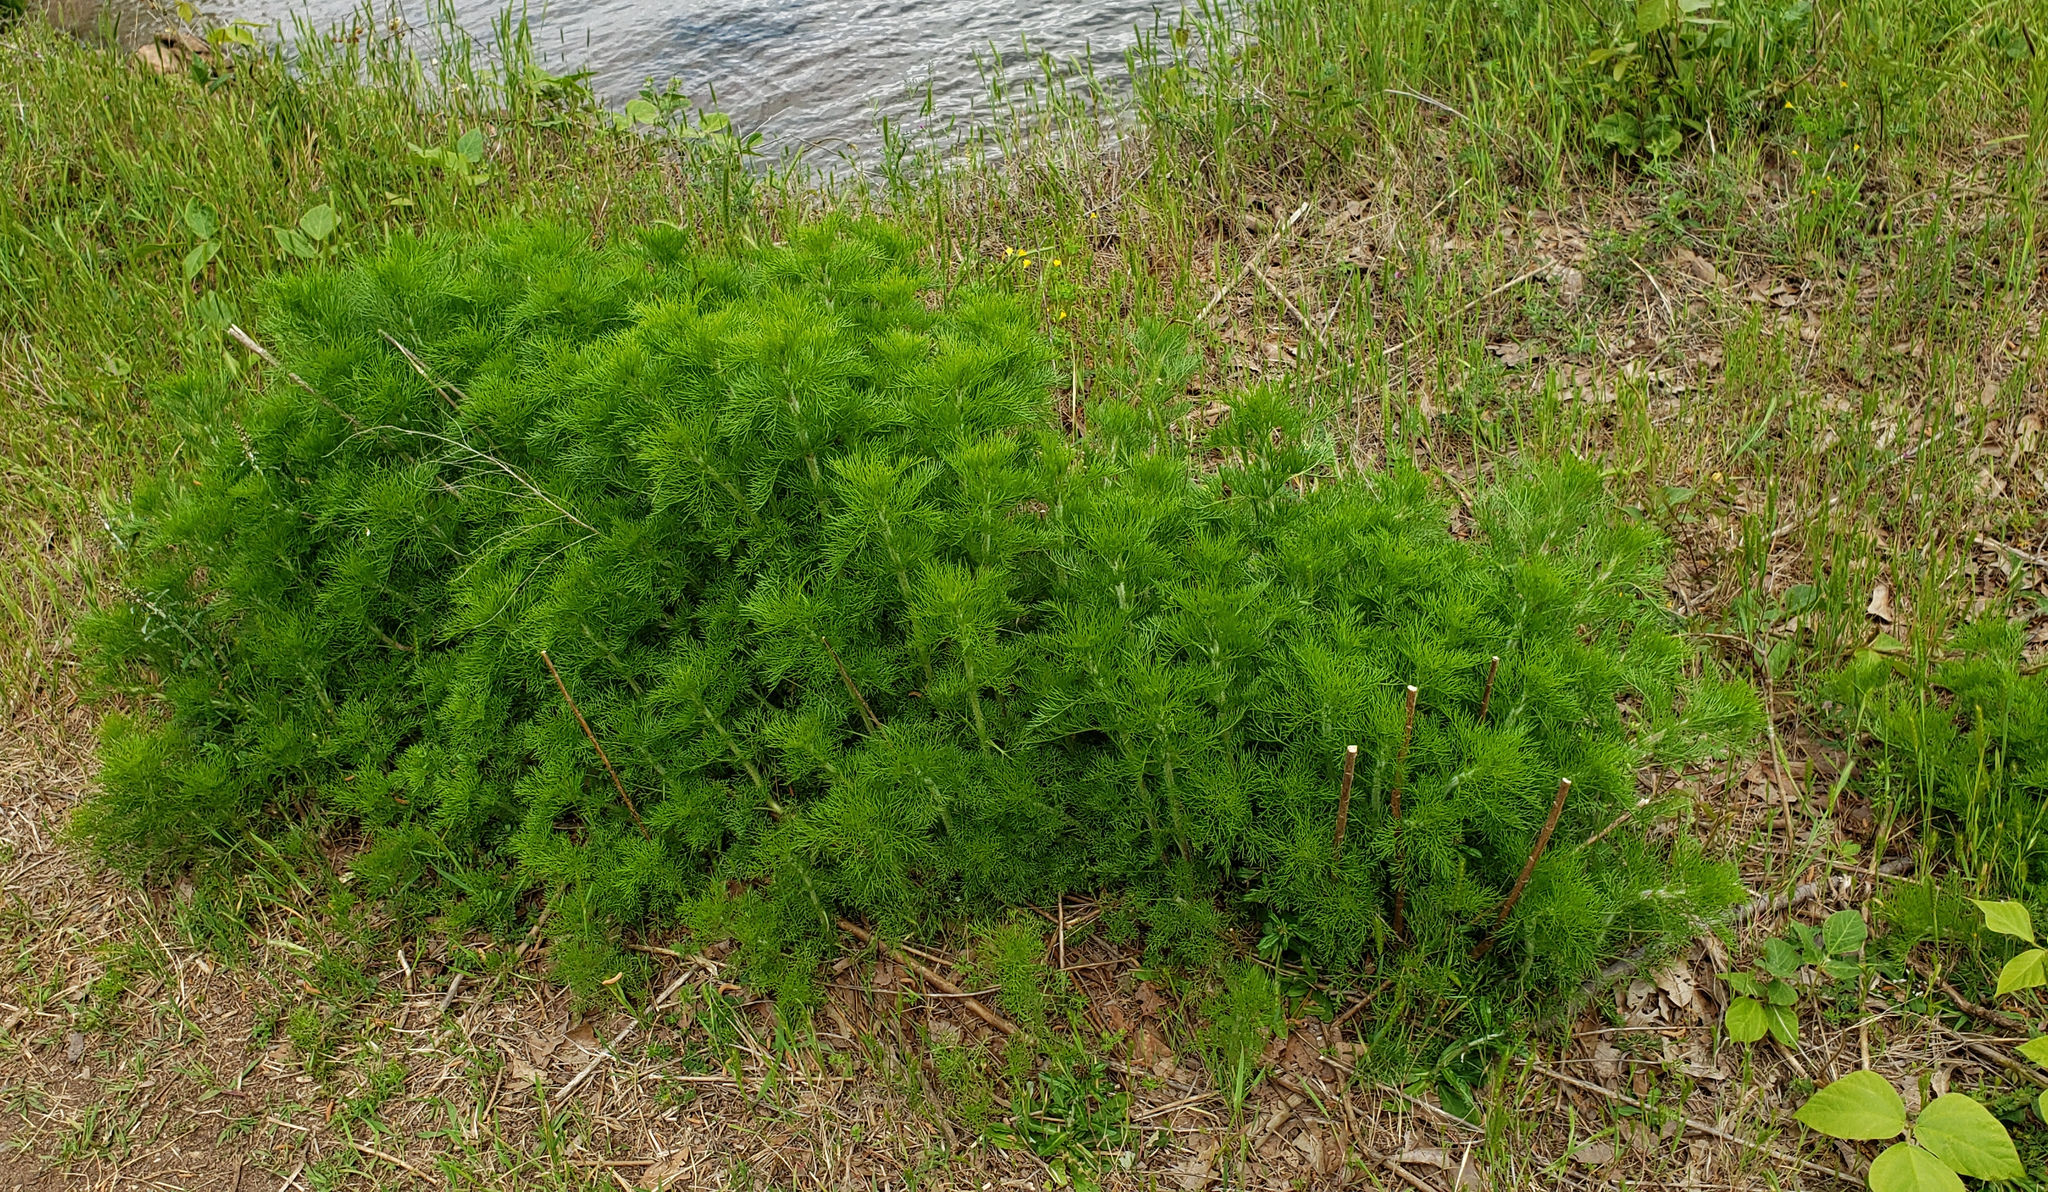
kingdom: Plantae
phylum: Tracheophyta
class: Magnoliopsida
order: Asterales
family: Asteraceae
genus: Eupatorium
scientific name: Eupatorium capillifolium
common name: Dog-fennel
